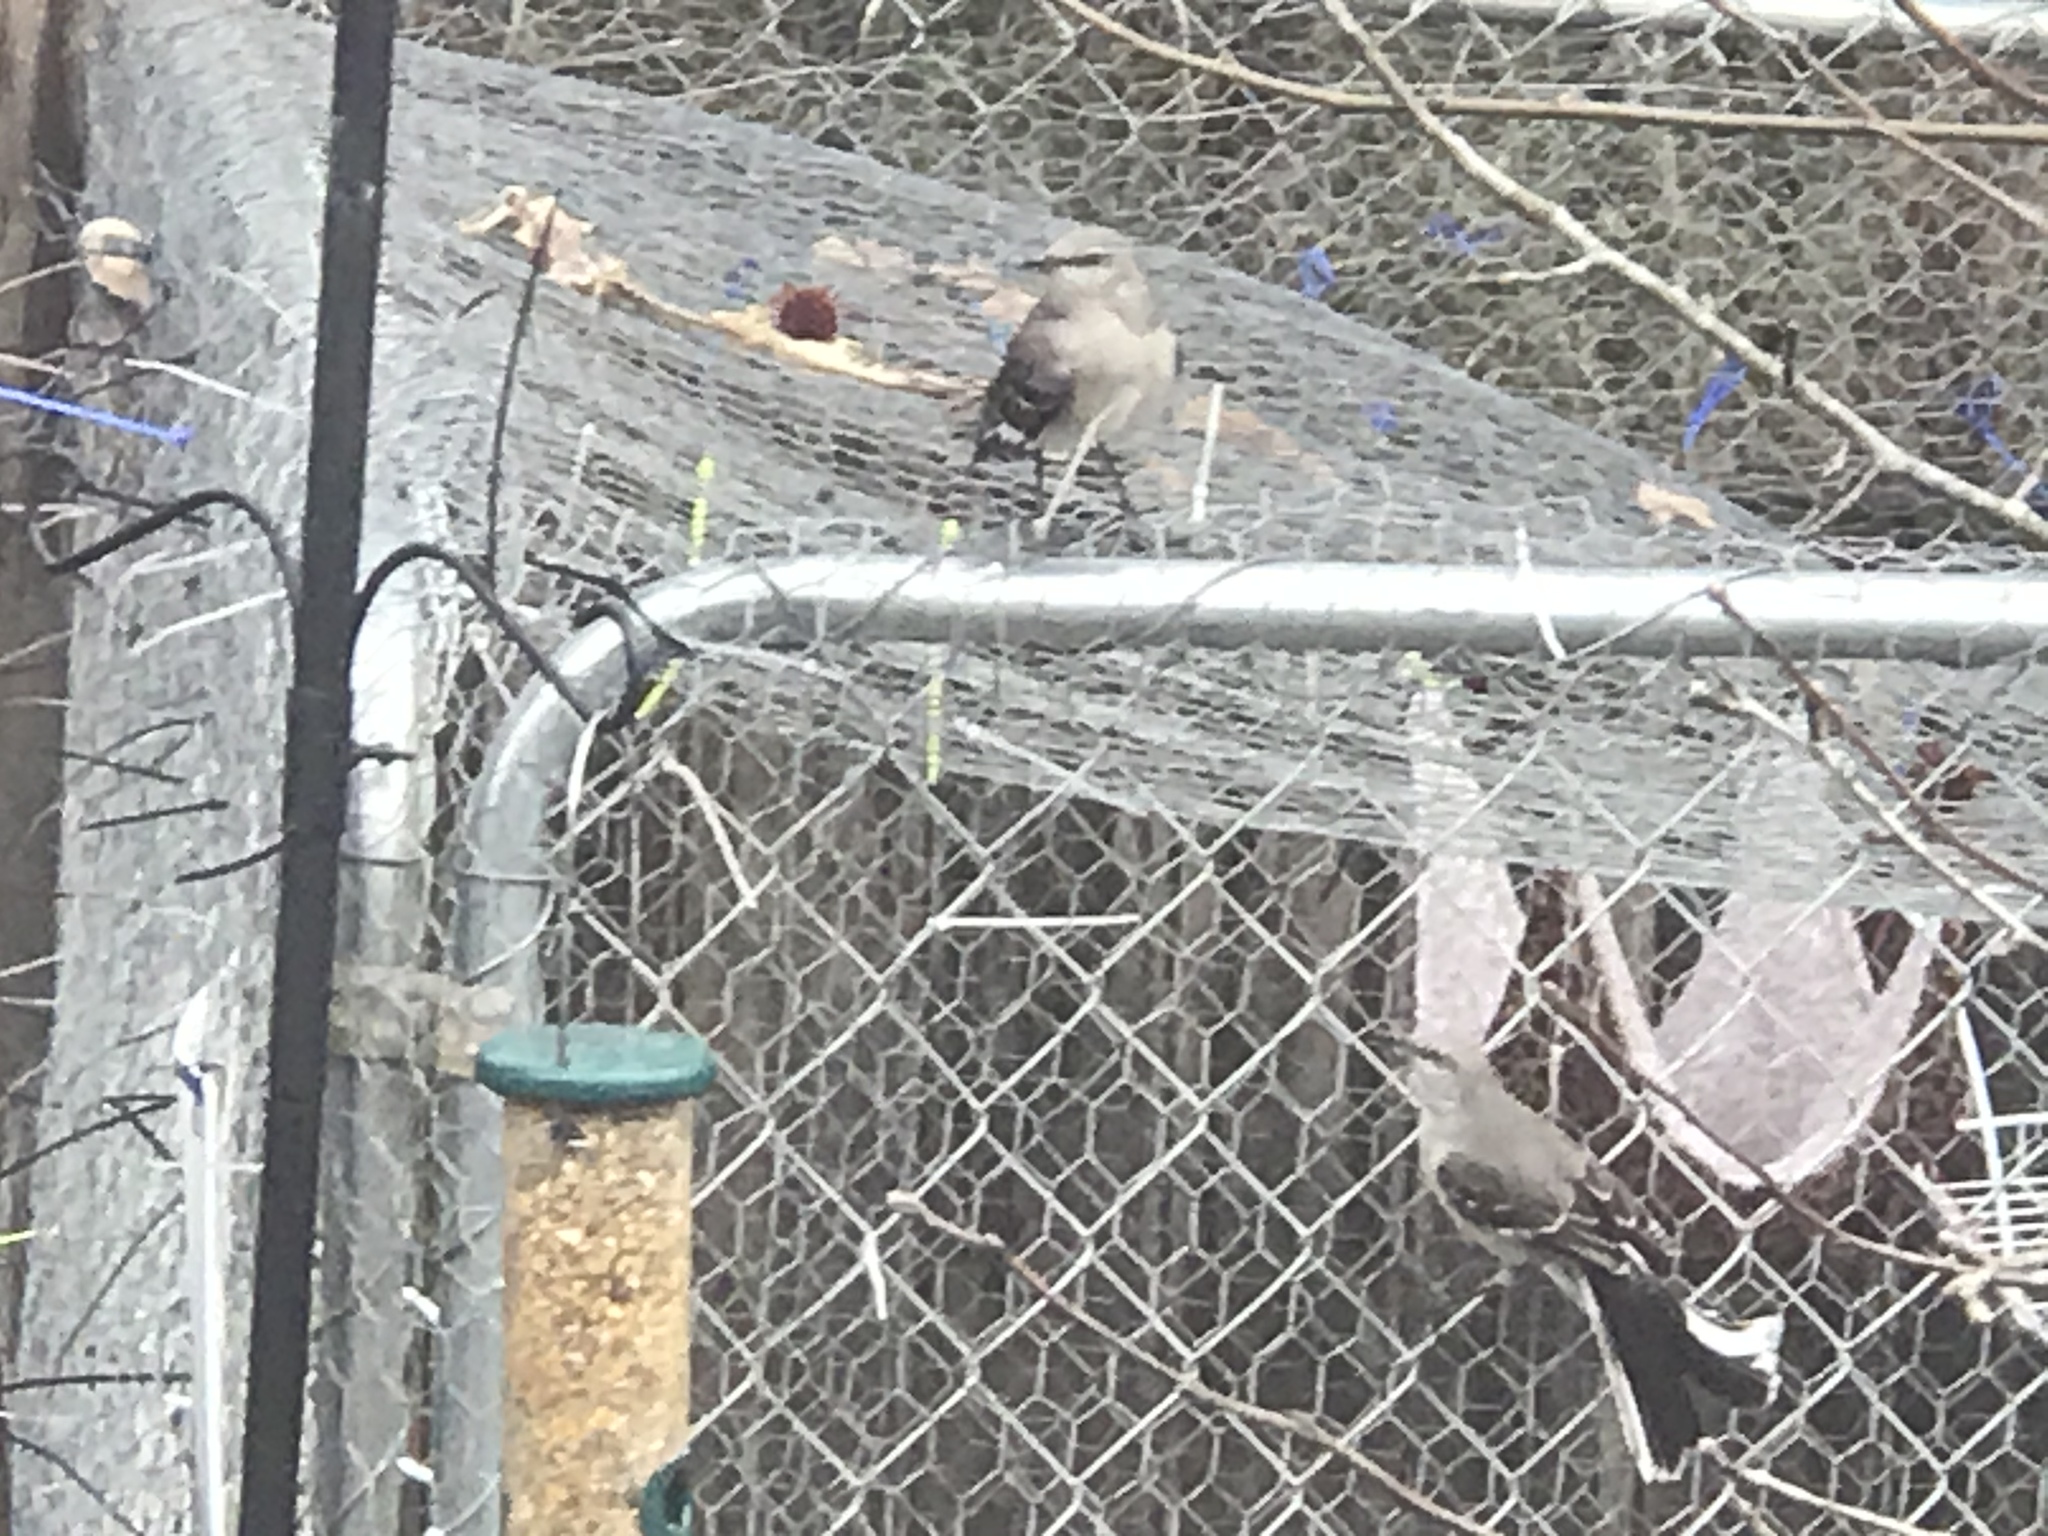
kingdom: Animalia
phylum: Chordata
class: Aves
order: Passeriformes
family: Mimidae
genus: Mimus
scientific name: Mimus polyglottos
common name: Northern mockingbird
